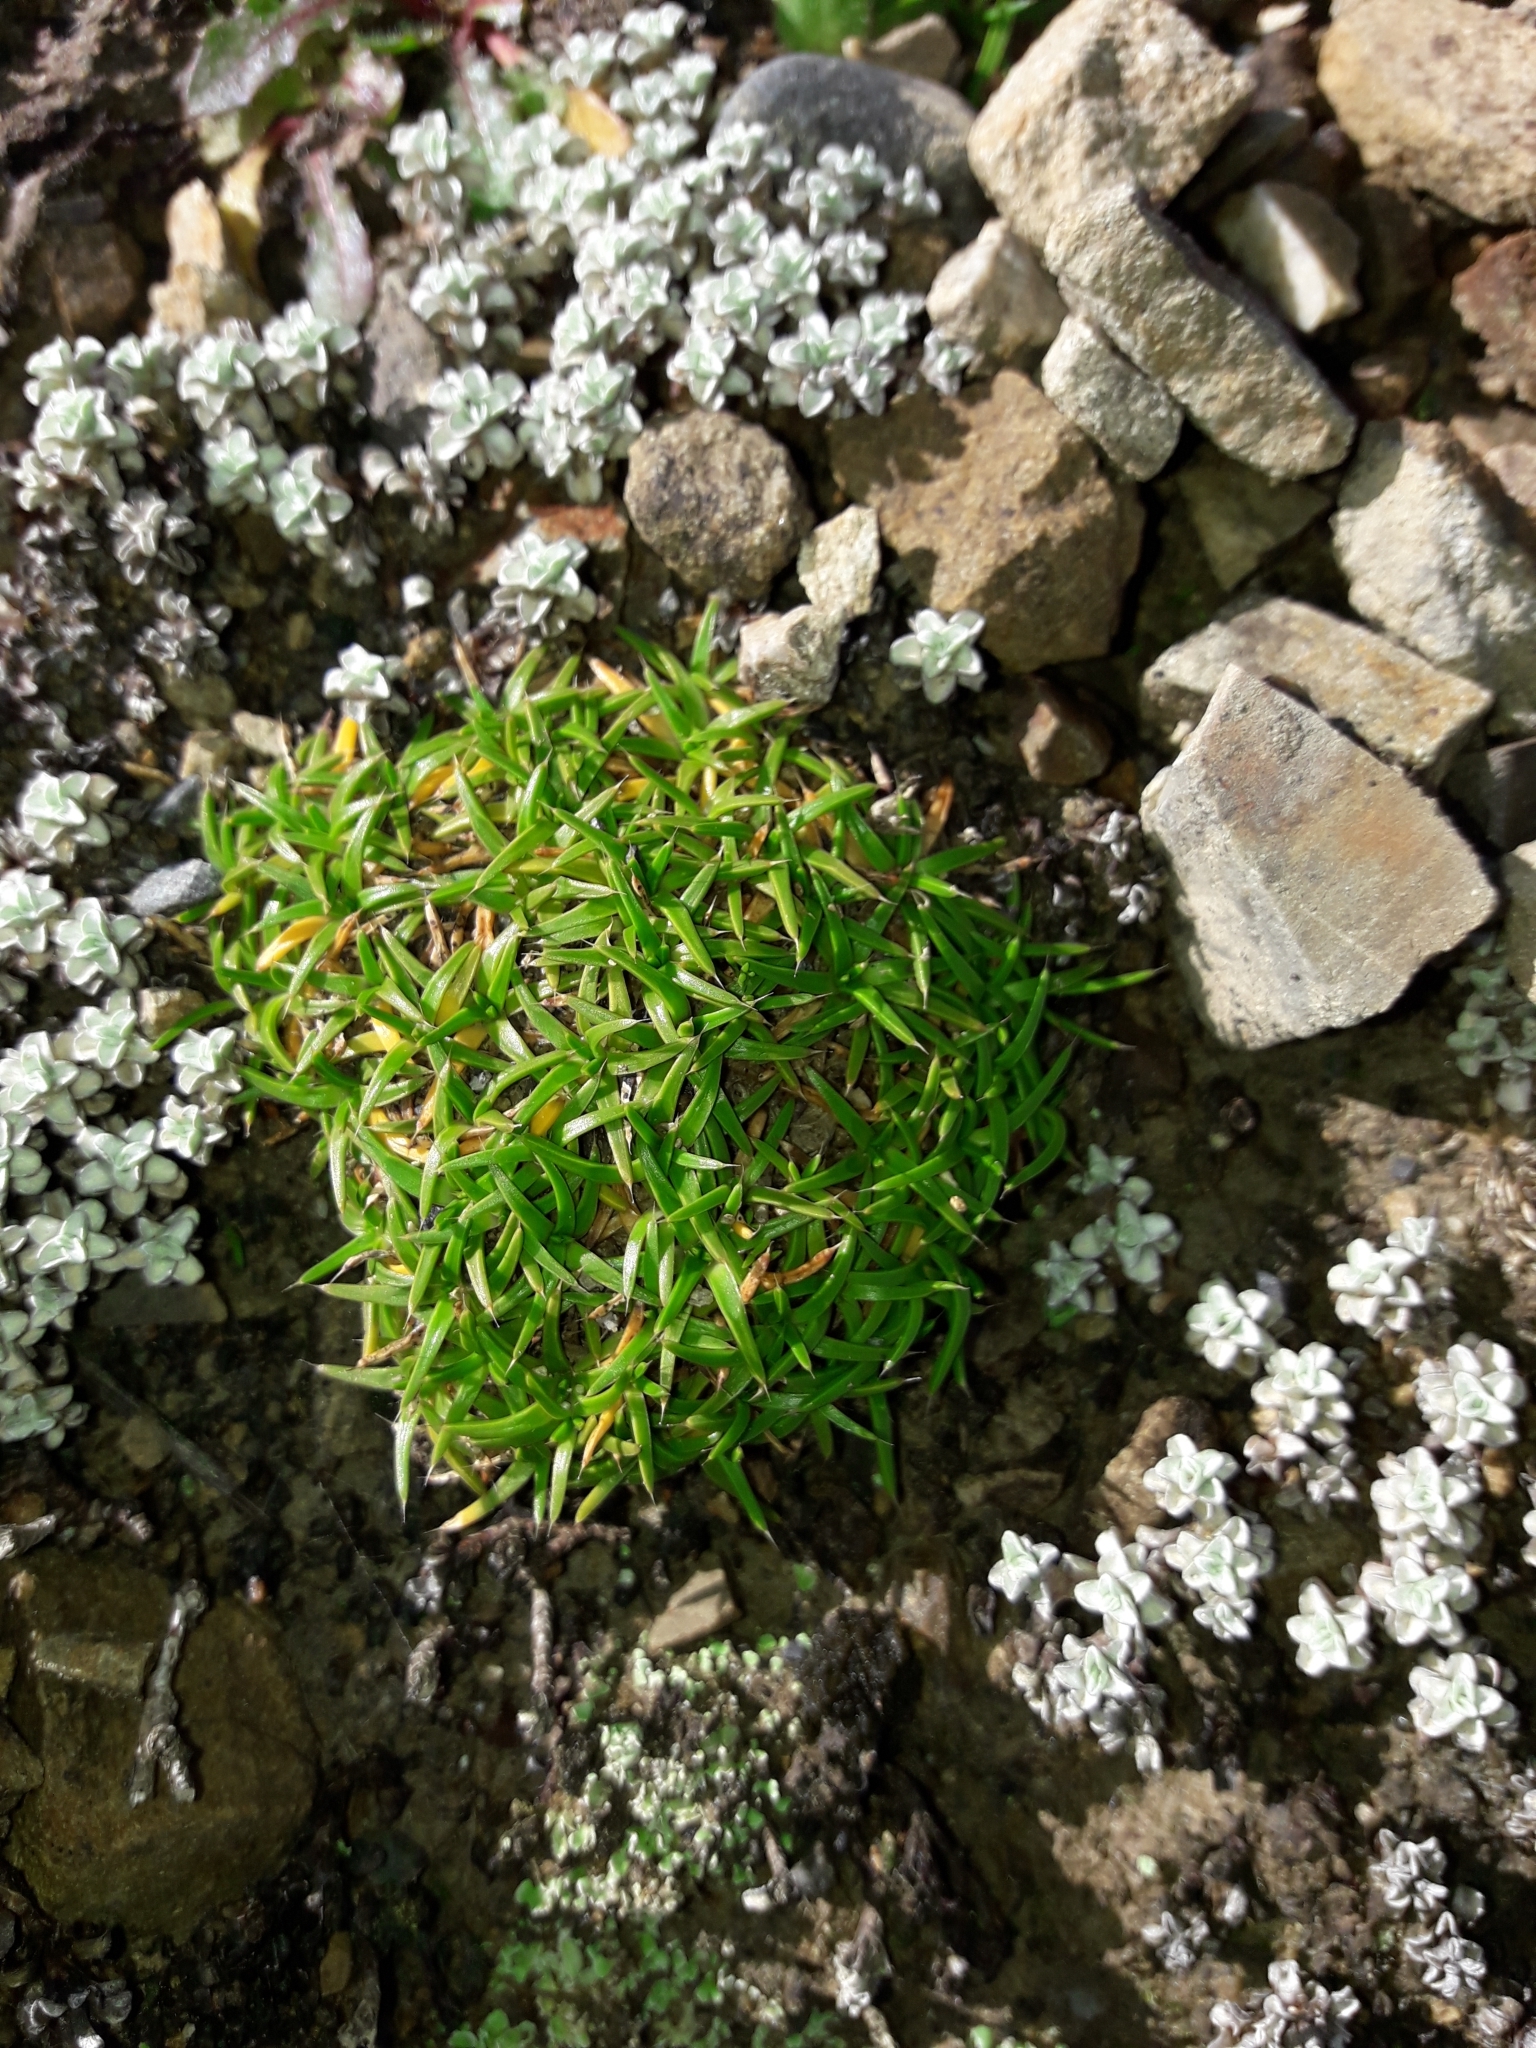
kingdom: Plantae
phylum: Tracheophyta
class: Magnoliopsida
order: Caryophyllales
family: Caryophyllaceae
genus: Colobanthus
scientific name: Colobanthus muelleri
